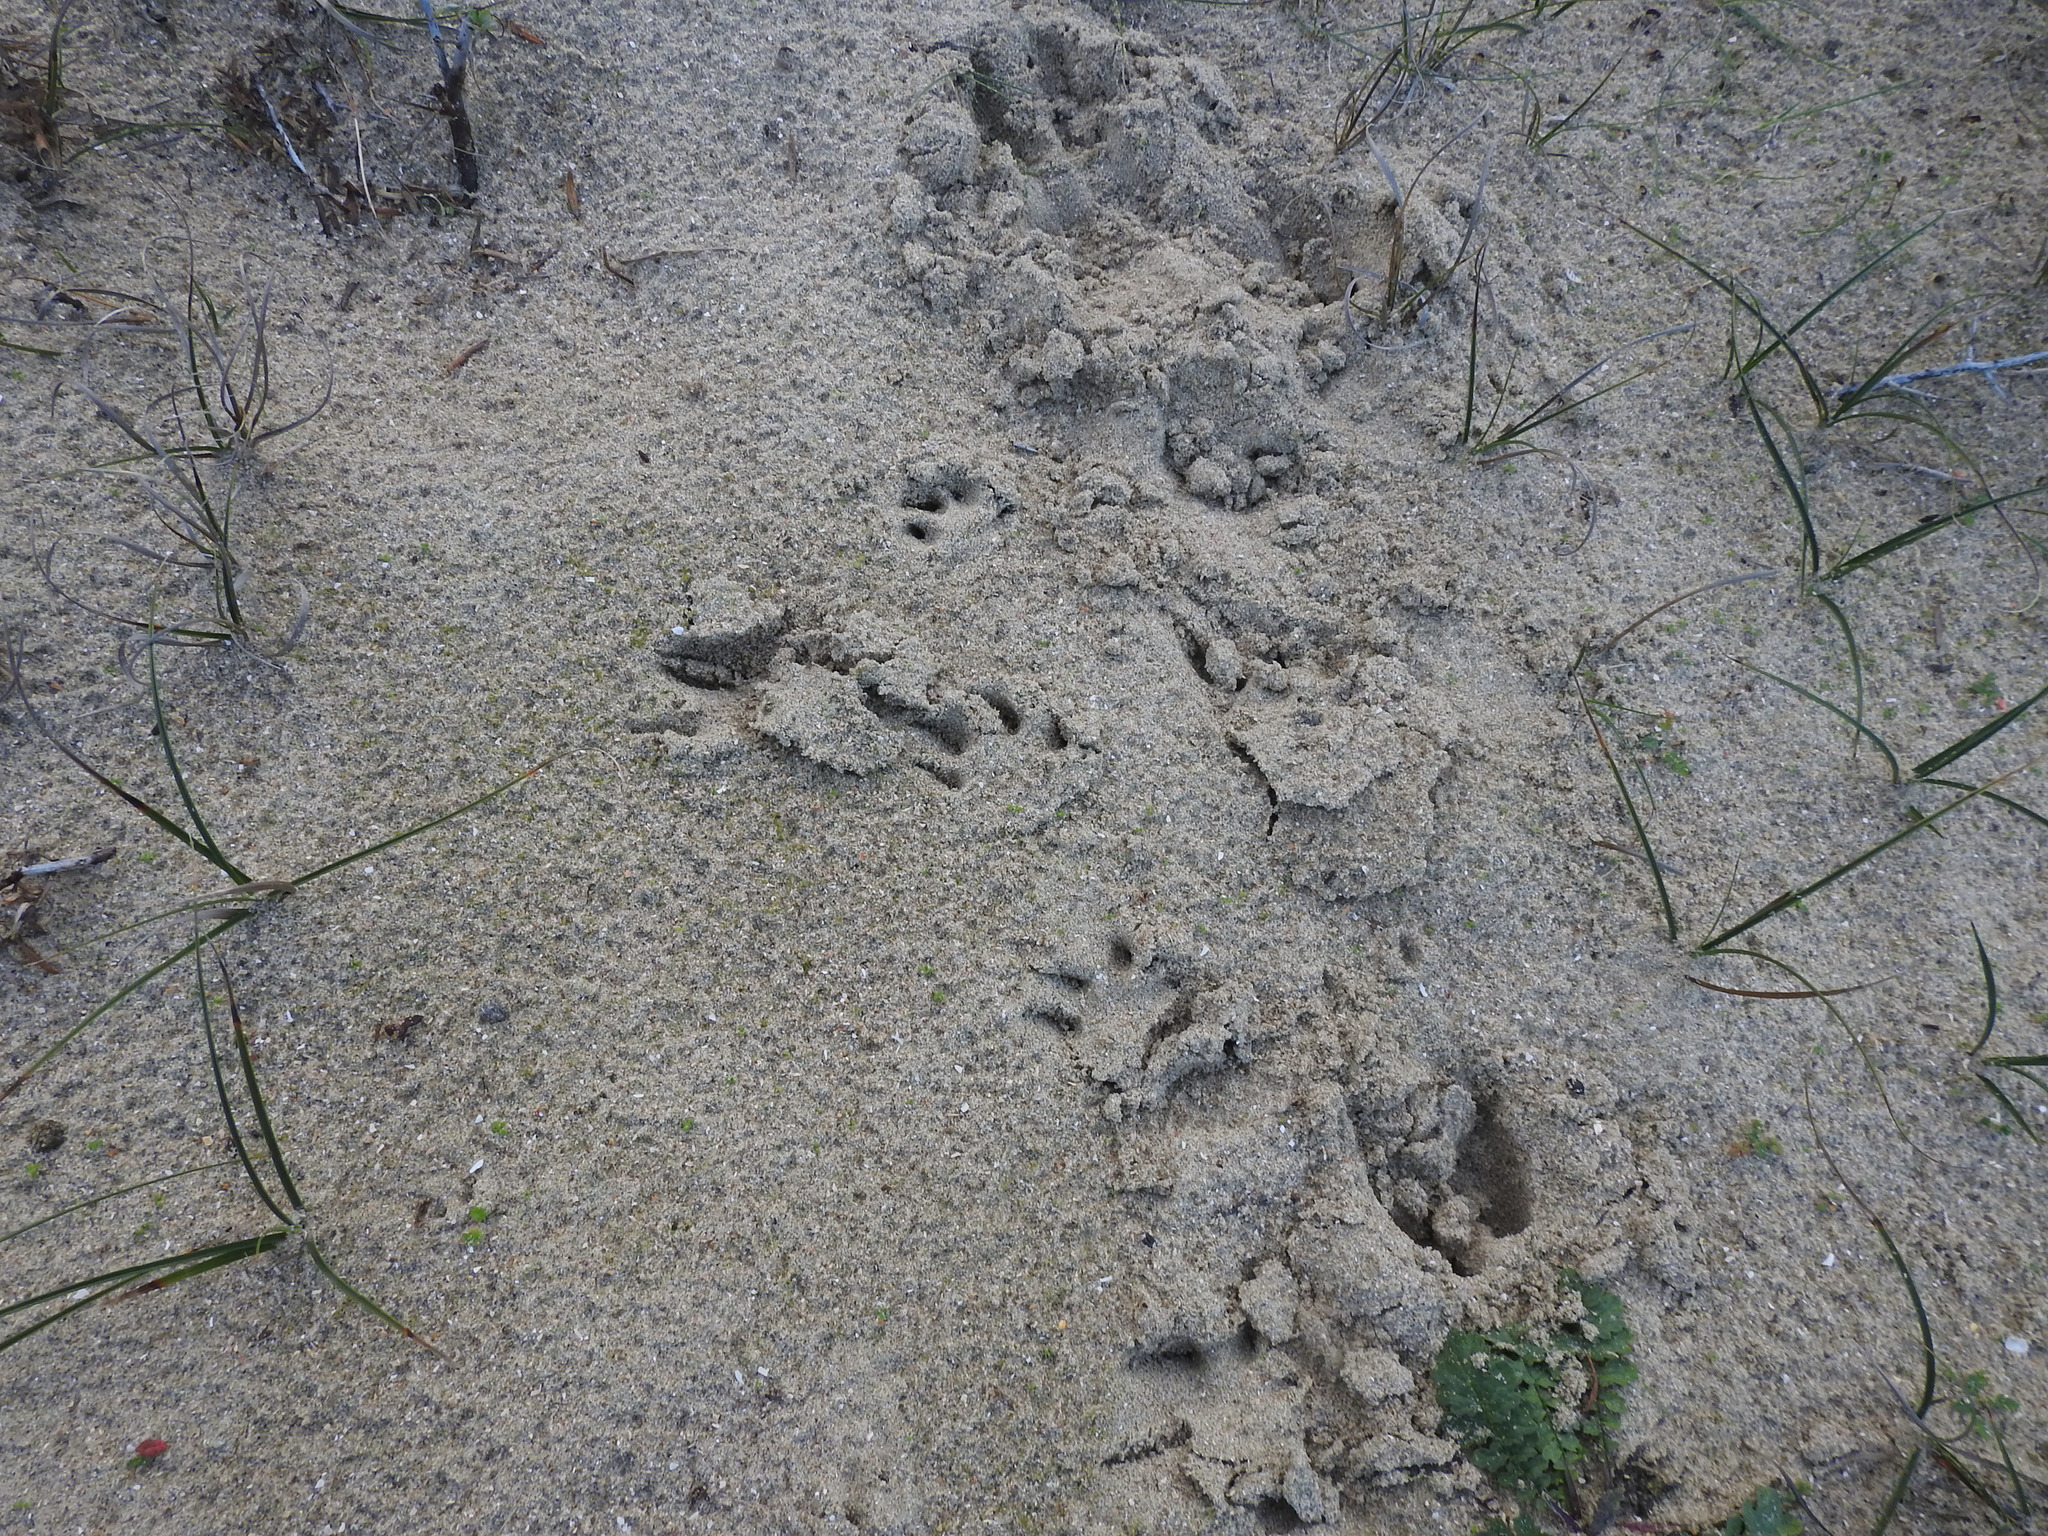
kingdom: Animalia
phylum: Chordata
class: Mammalia
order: Carnivora
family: Canidae
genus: Vulpes
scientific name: Vulpes vulpes
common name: Red fox
